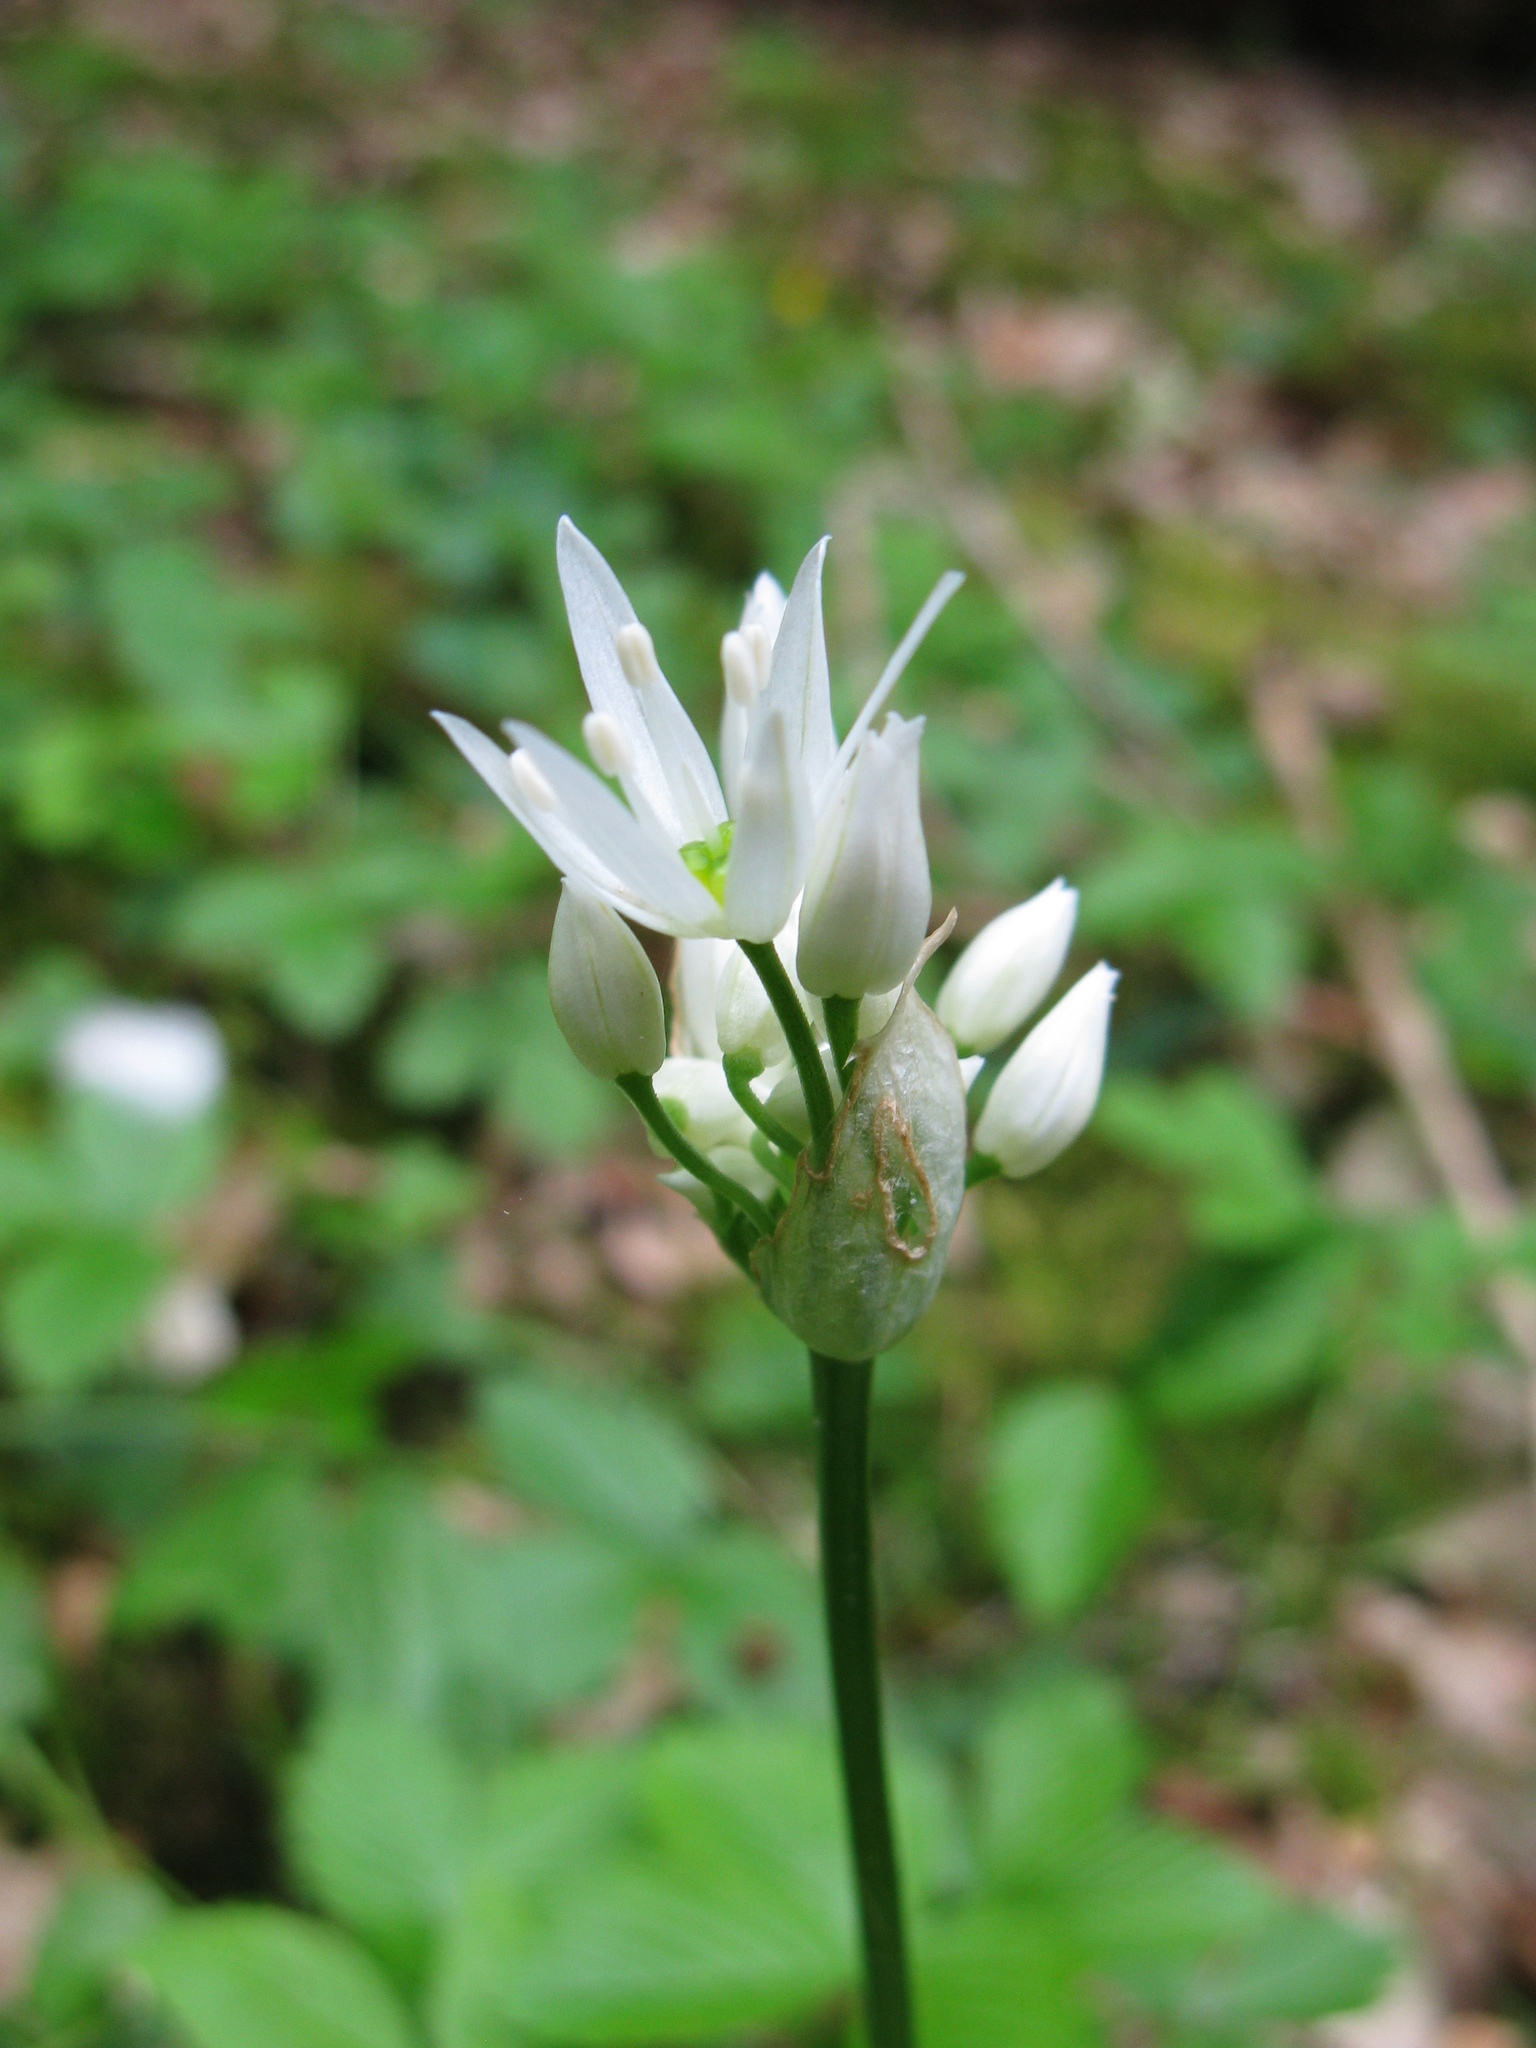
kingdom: Plantae
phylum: Tracheophyta
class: Liliopsida
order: Asparagales
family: Amaryllidaceae
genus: Allium
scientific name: Allium ursinum
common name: Ramsons
